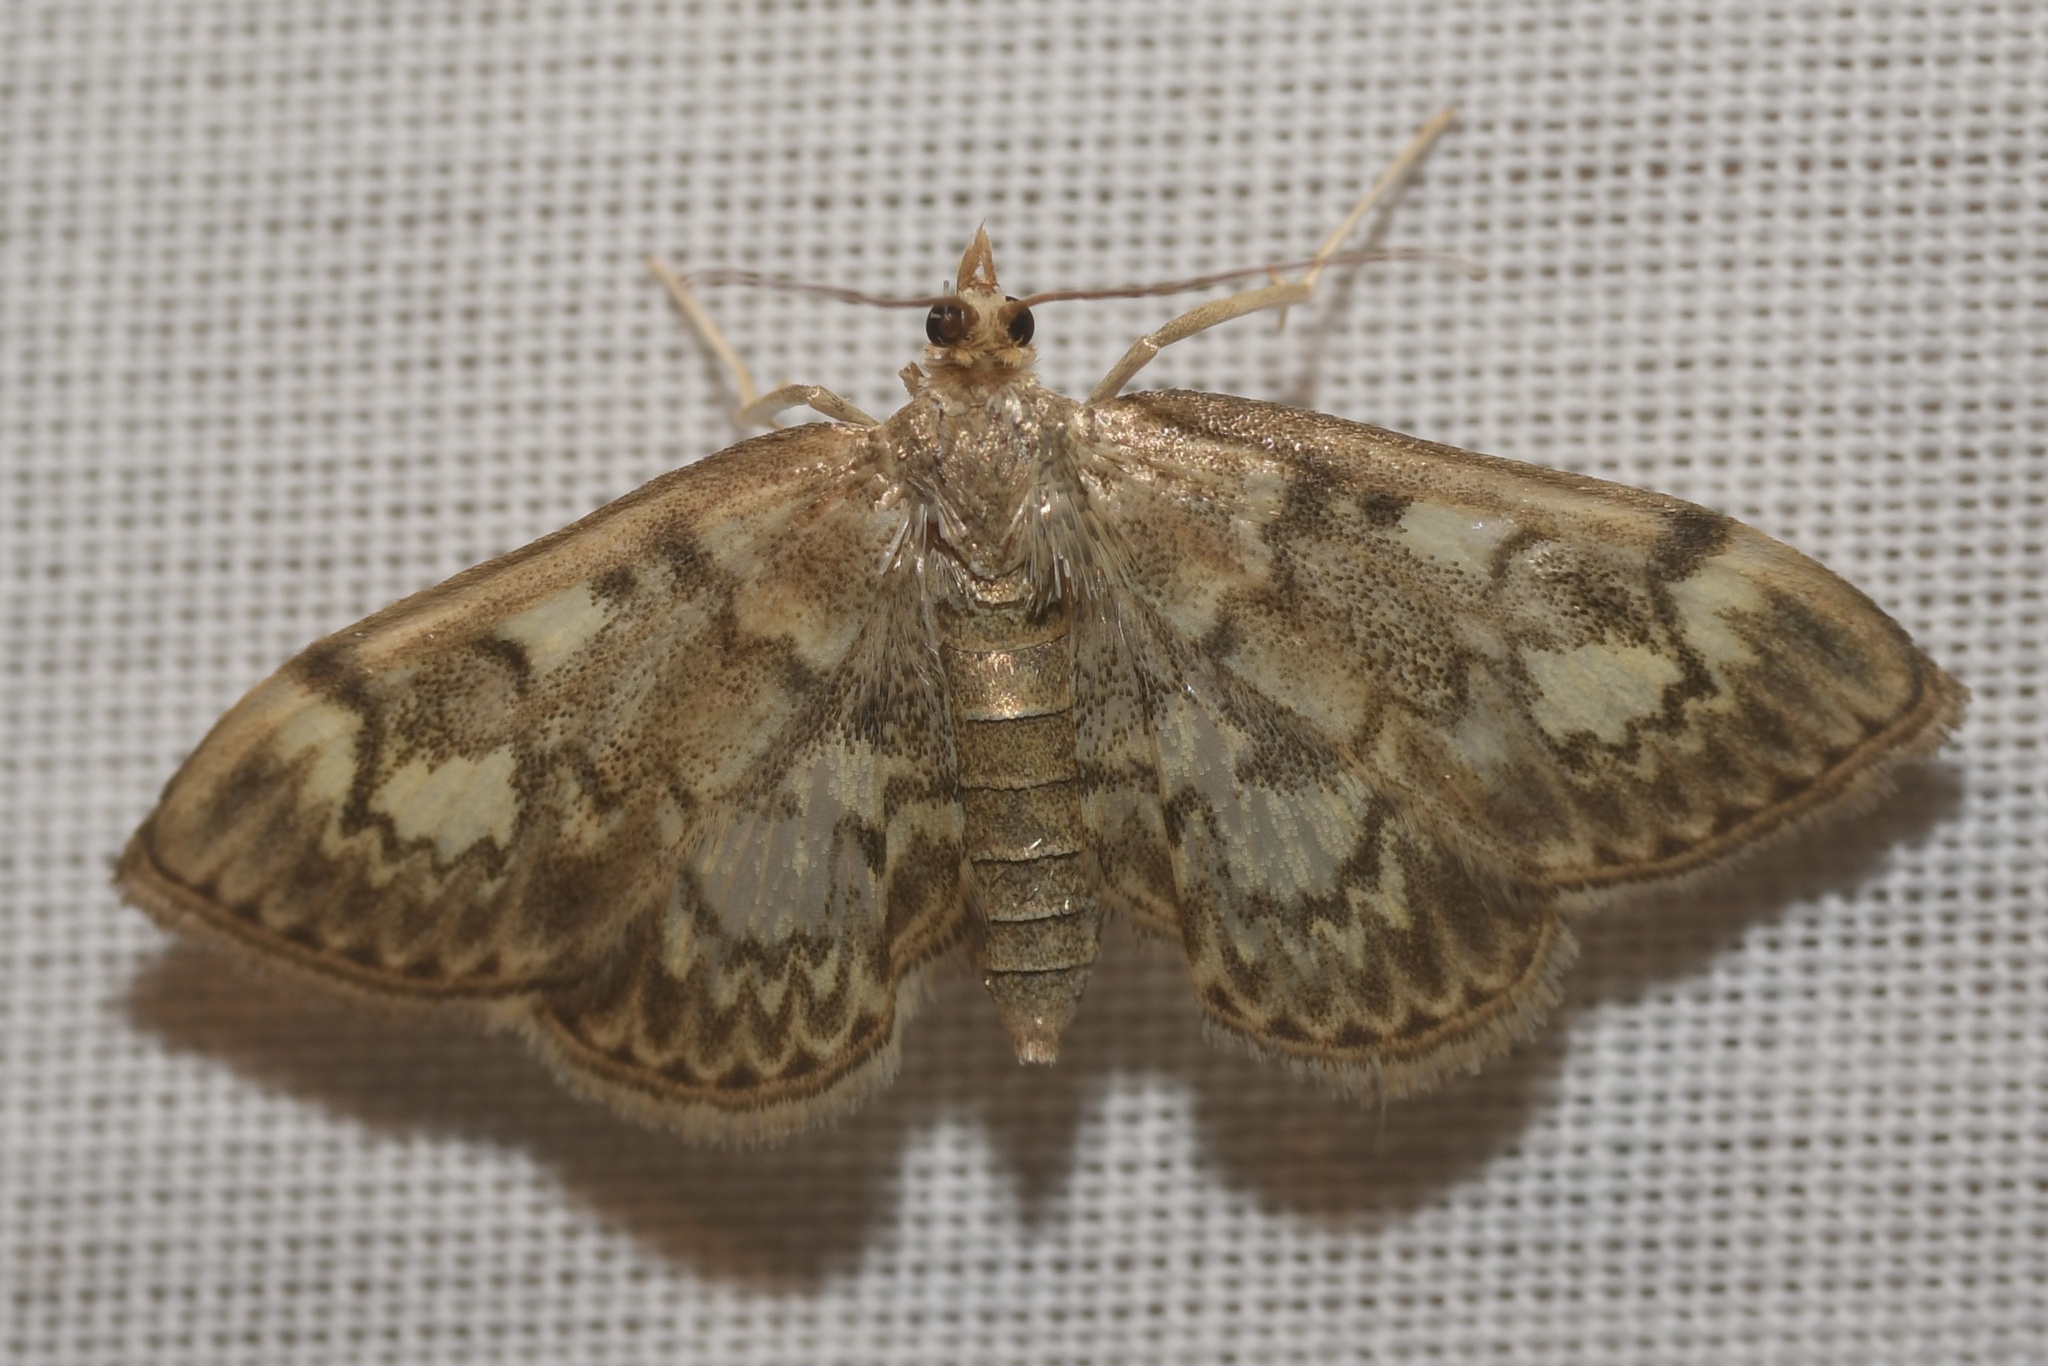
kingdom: Animalia
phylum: Arthropoda
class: Insecta
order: Lepidoptera
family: Crambidae
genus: Anania
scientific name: Anania
